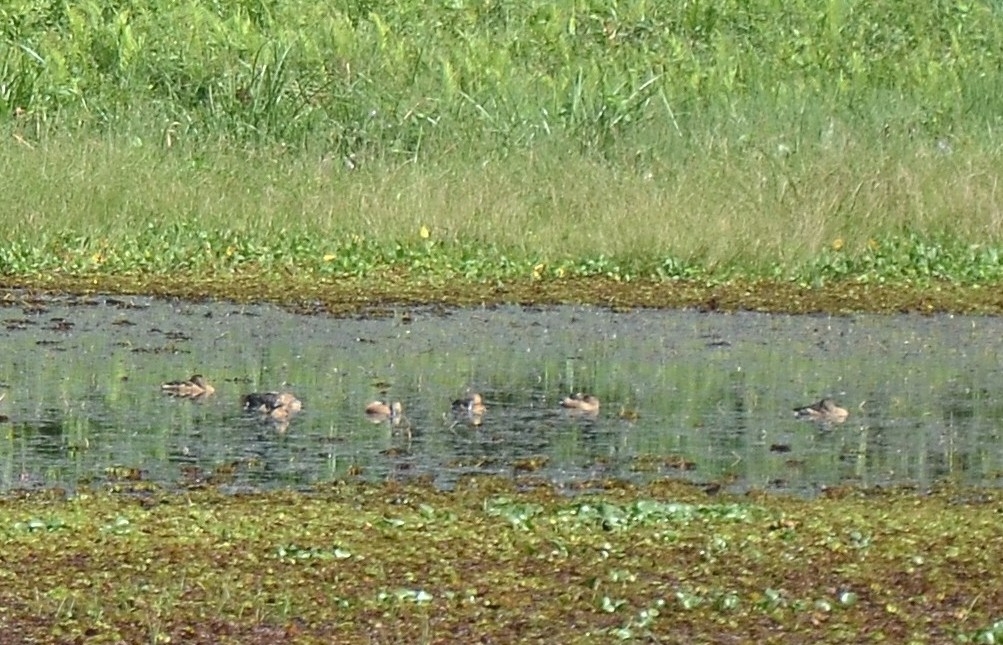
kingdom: Animalia
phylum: Chordata
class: Aves
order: Anseriformes
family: Anatidae
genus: Dendrocygna
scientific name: Dendrocygna javanica
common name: Lesser whistling-duck
